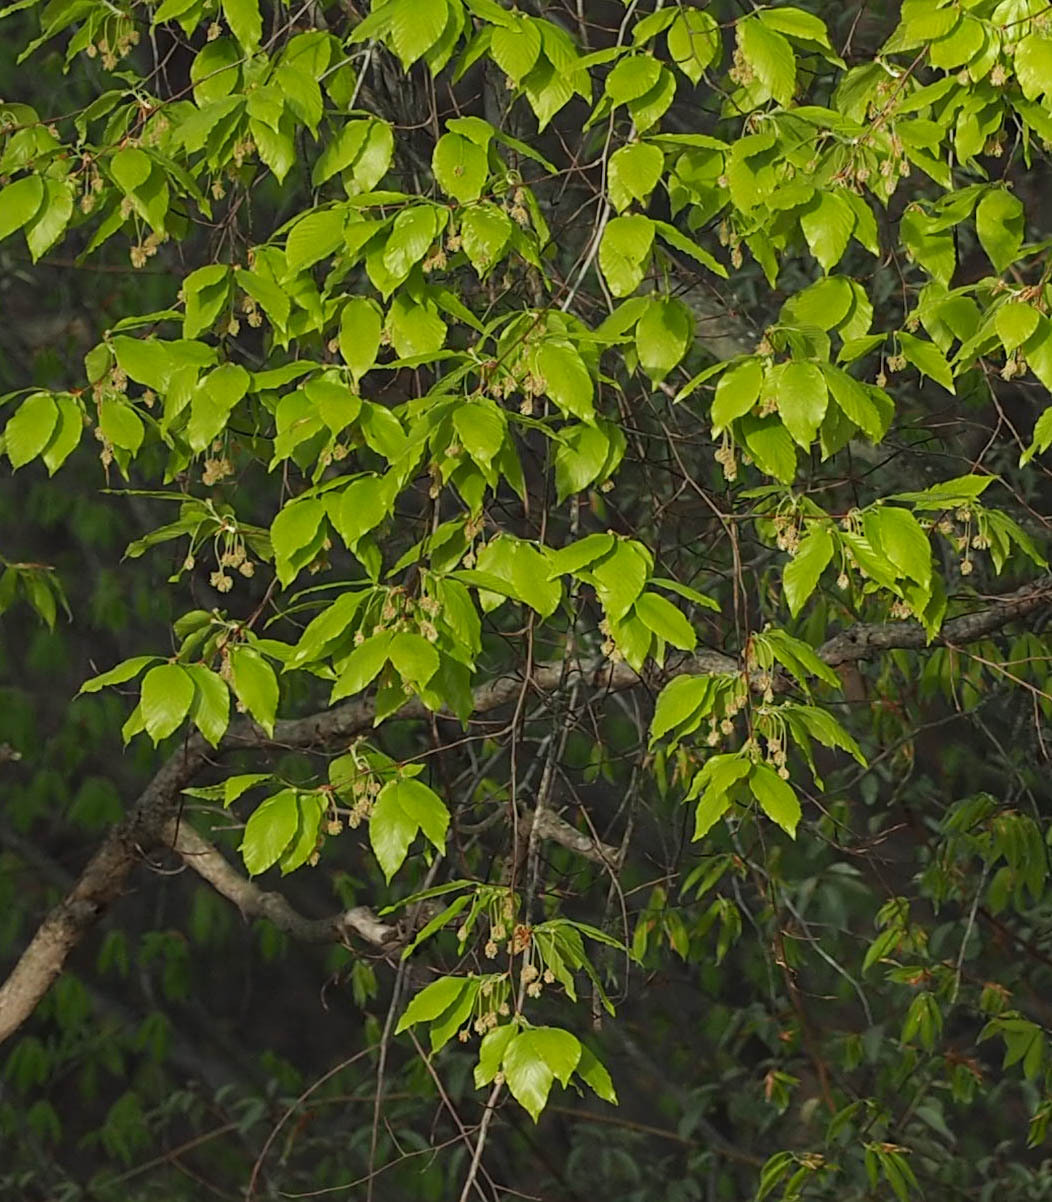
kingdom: Plantae
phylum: Tracheophyta
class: Magnoliopsida
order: Fagales
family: Fagaceae
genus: Fagus
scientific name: Fagus grandifolia
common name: American beech
